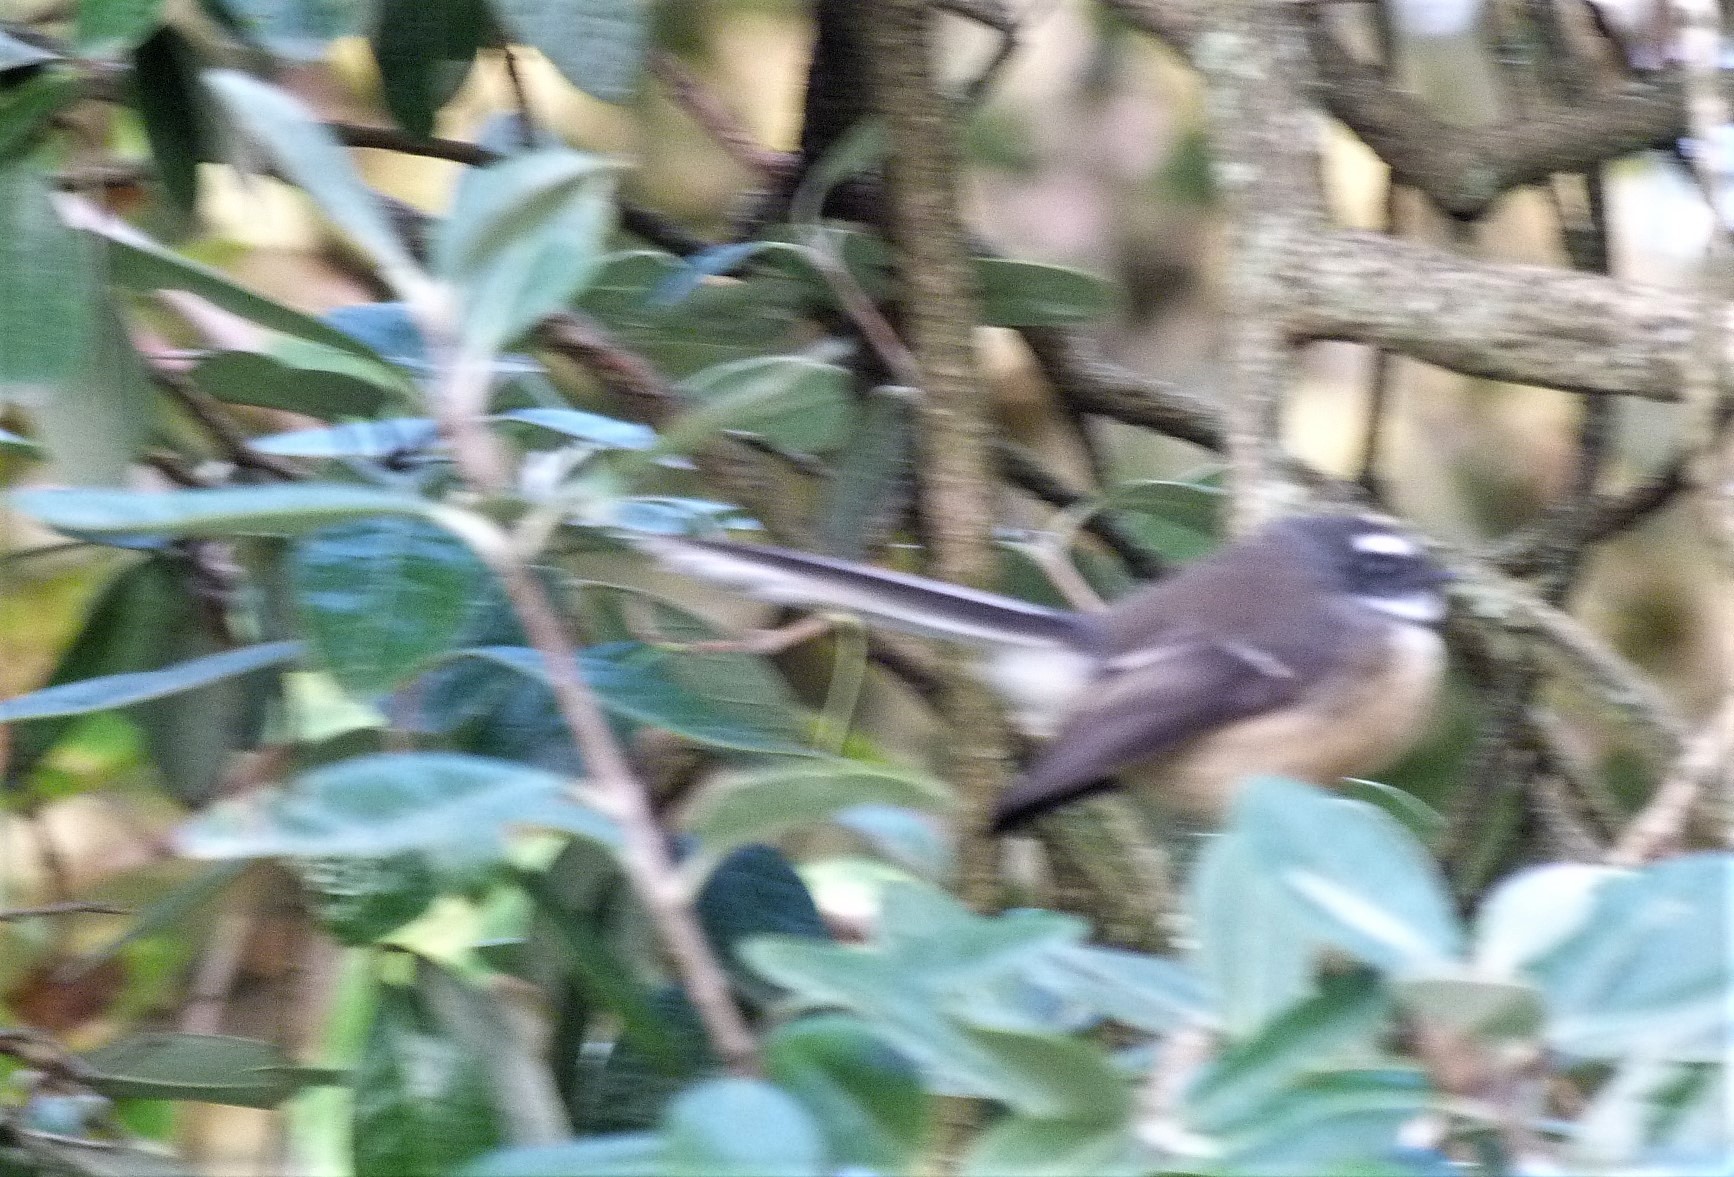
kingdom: Animalia
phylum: Chordata
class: Aves
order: Passeriformes
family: Rhipiduridae
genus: Rhipidura
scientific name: Rhipidura fuliginosa
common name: New zealand fantail
